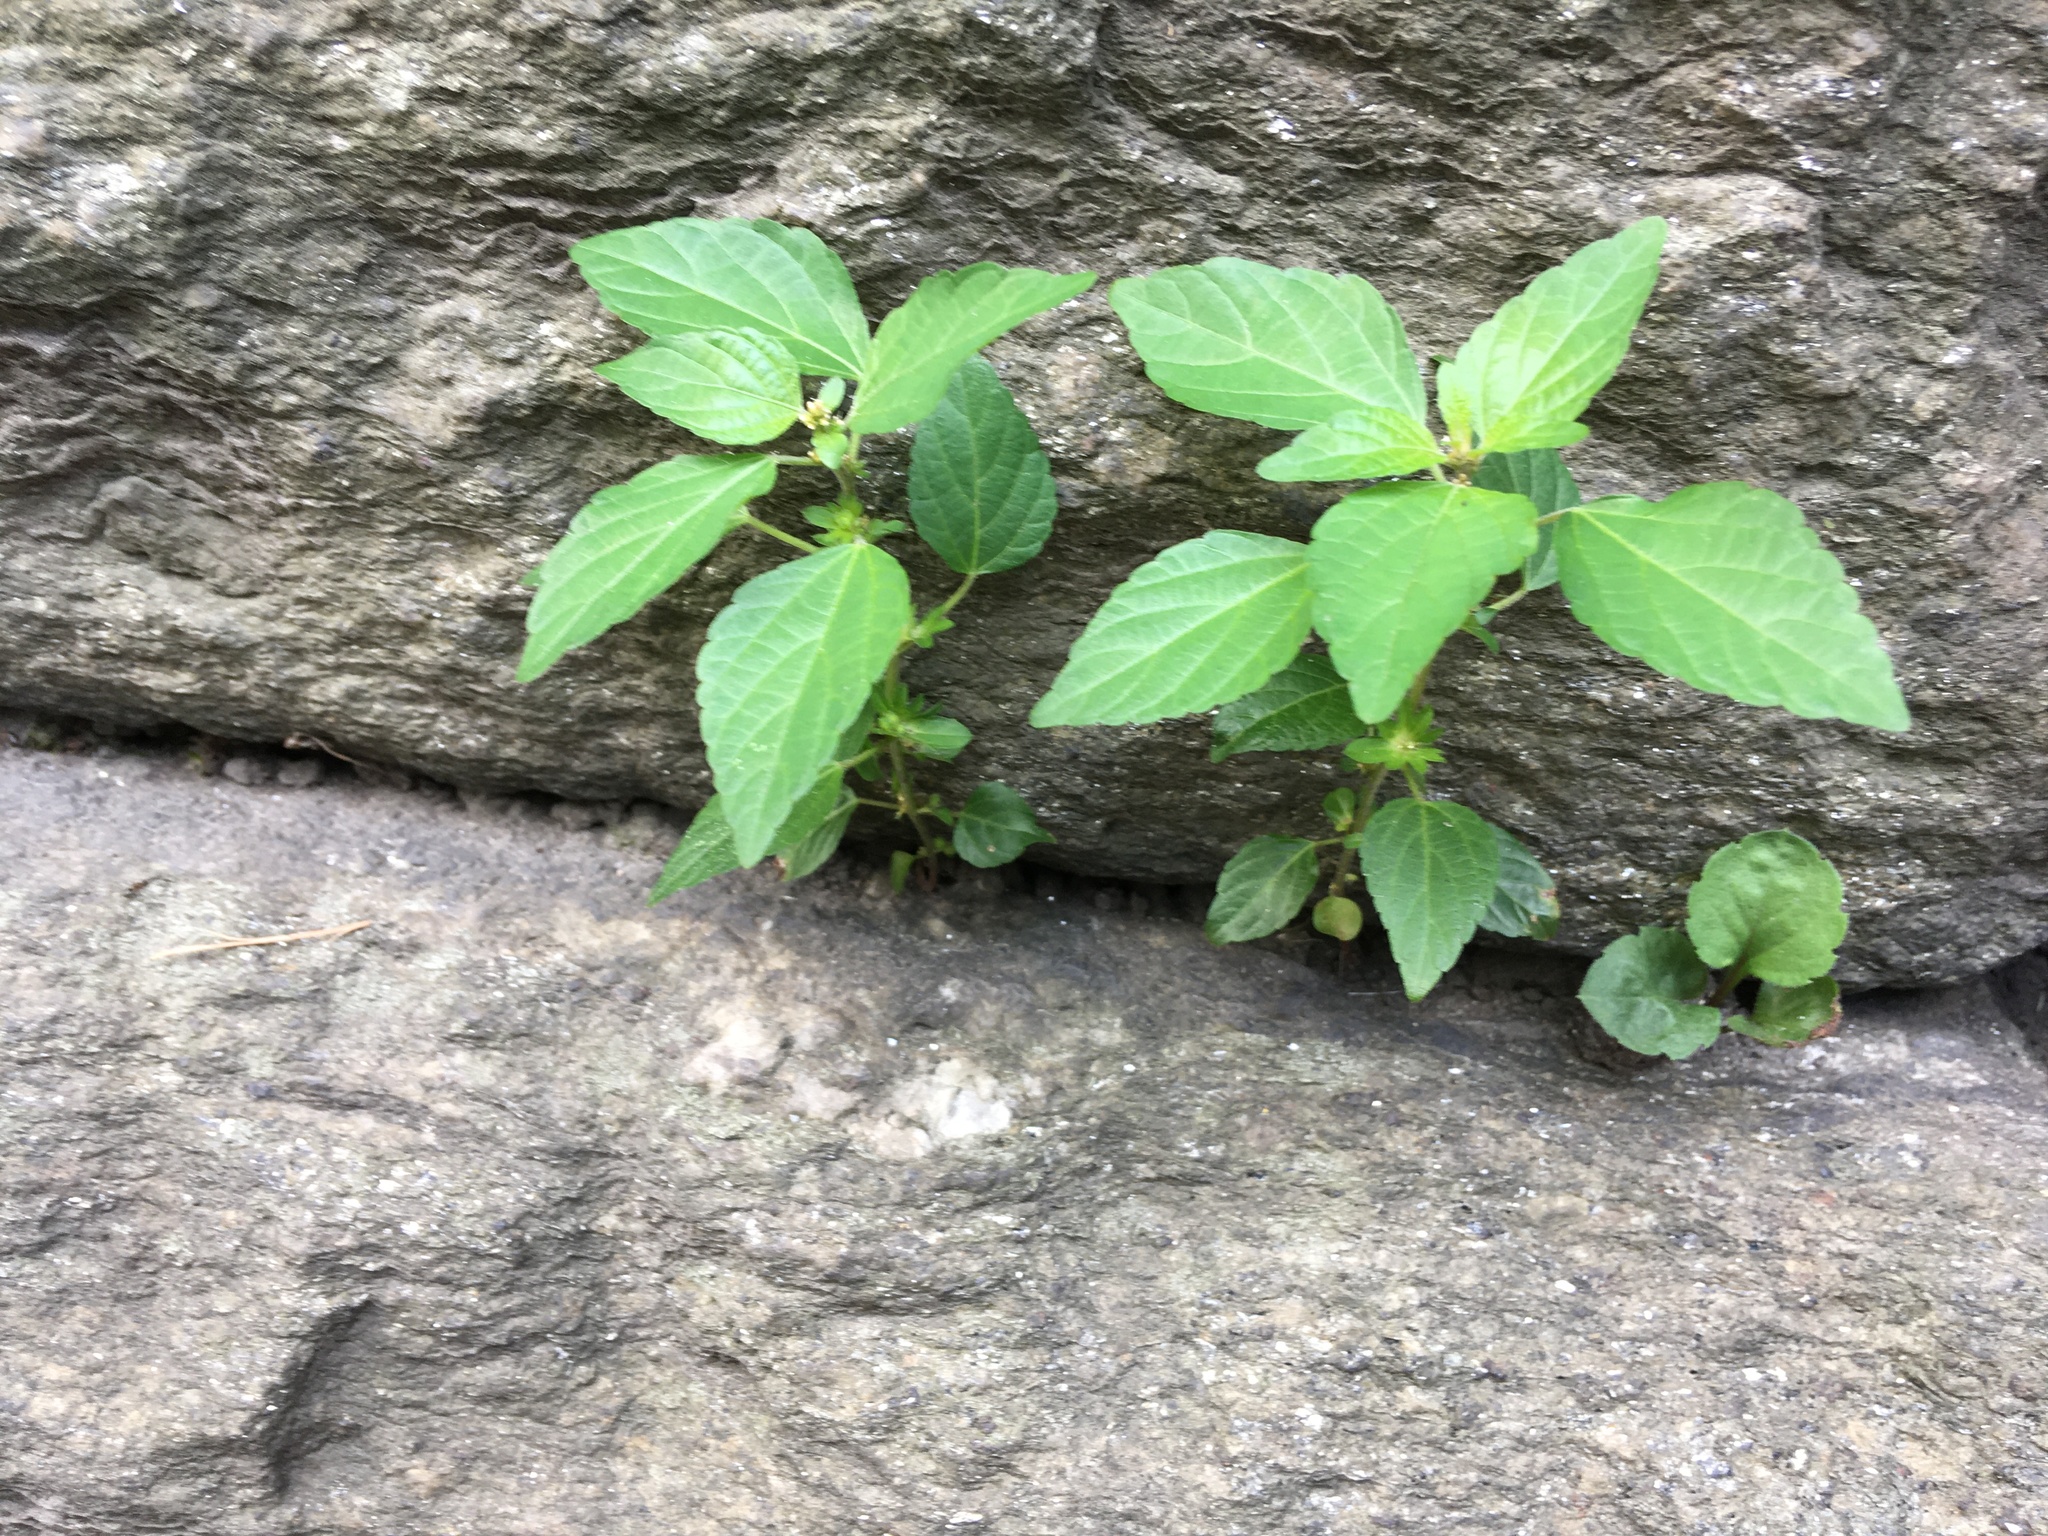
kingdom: Plantae
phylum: Tracheophyta
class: Magnoliopsida
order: Malpighiales
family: Euphorbiaceae
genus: Acalypha
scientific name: Acalypha rhomboidea
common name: Rhombic copperleaf
